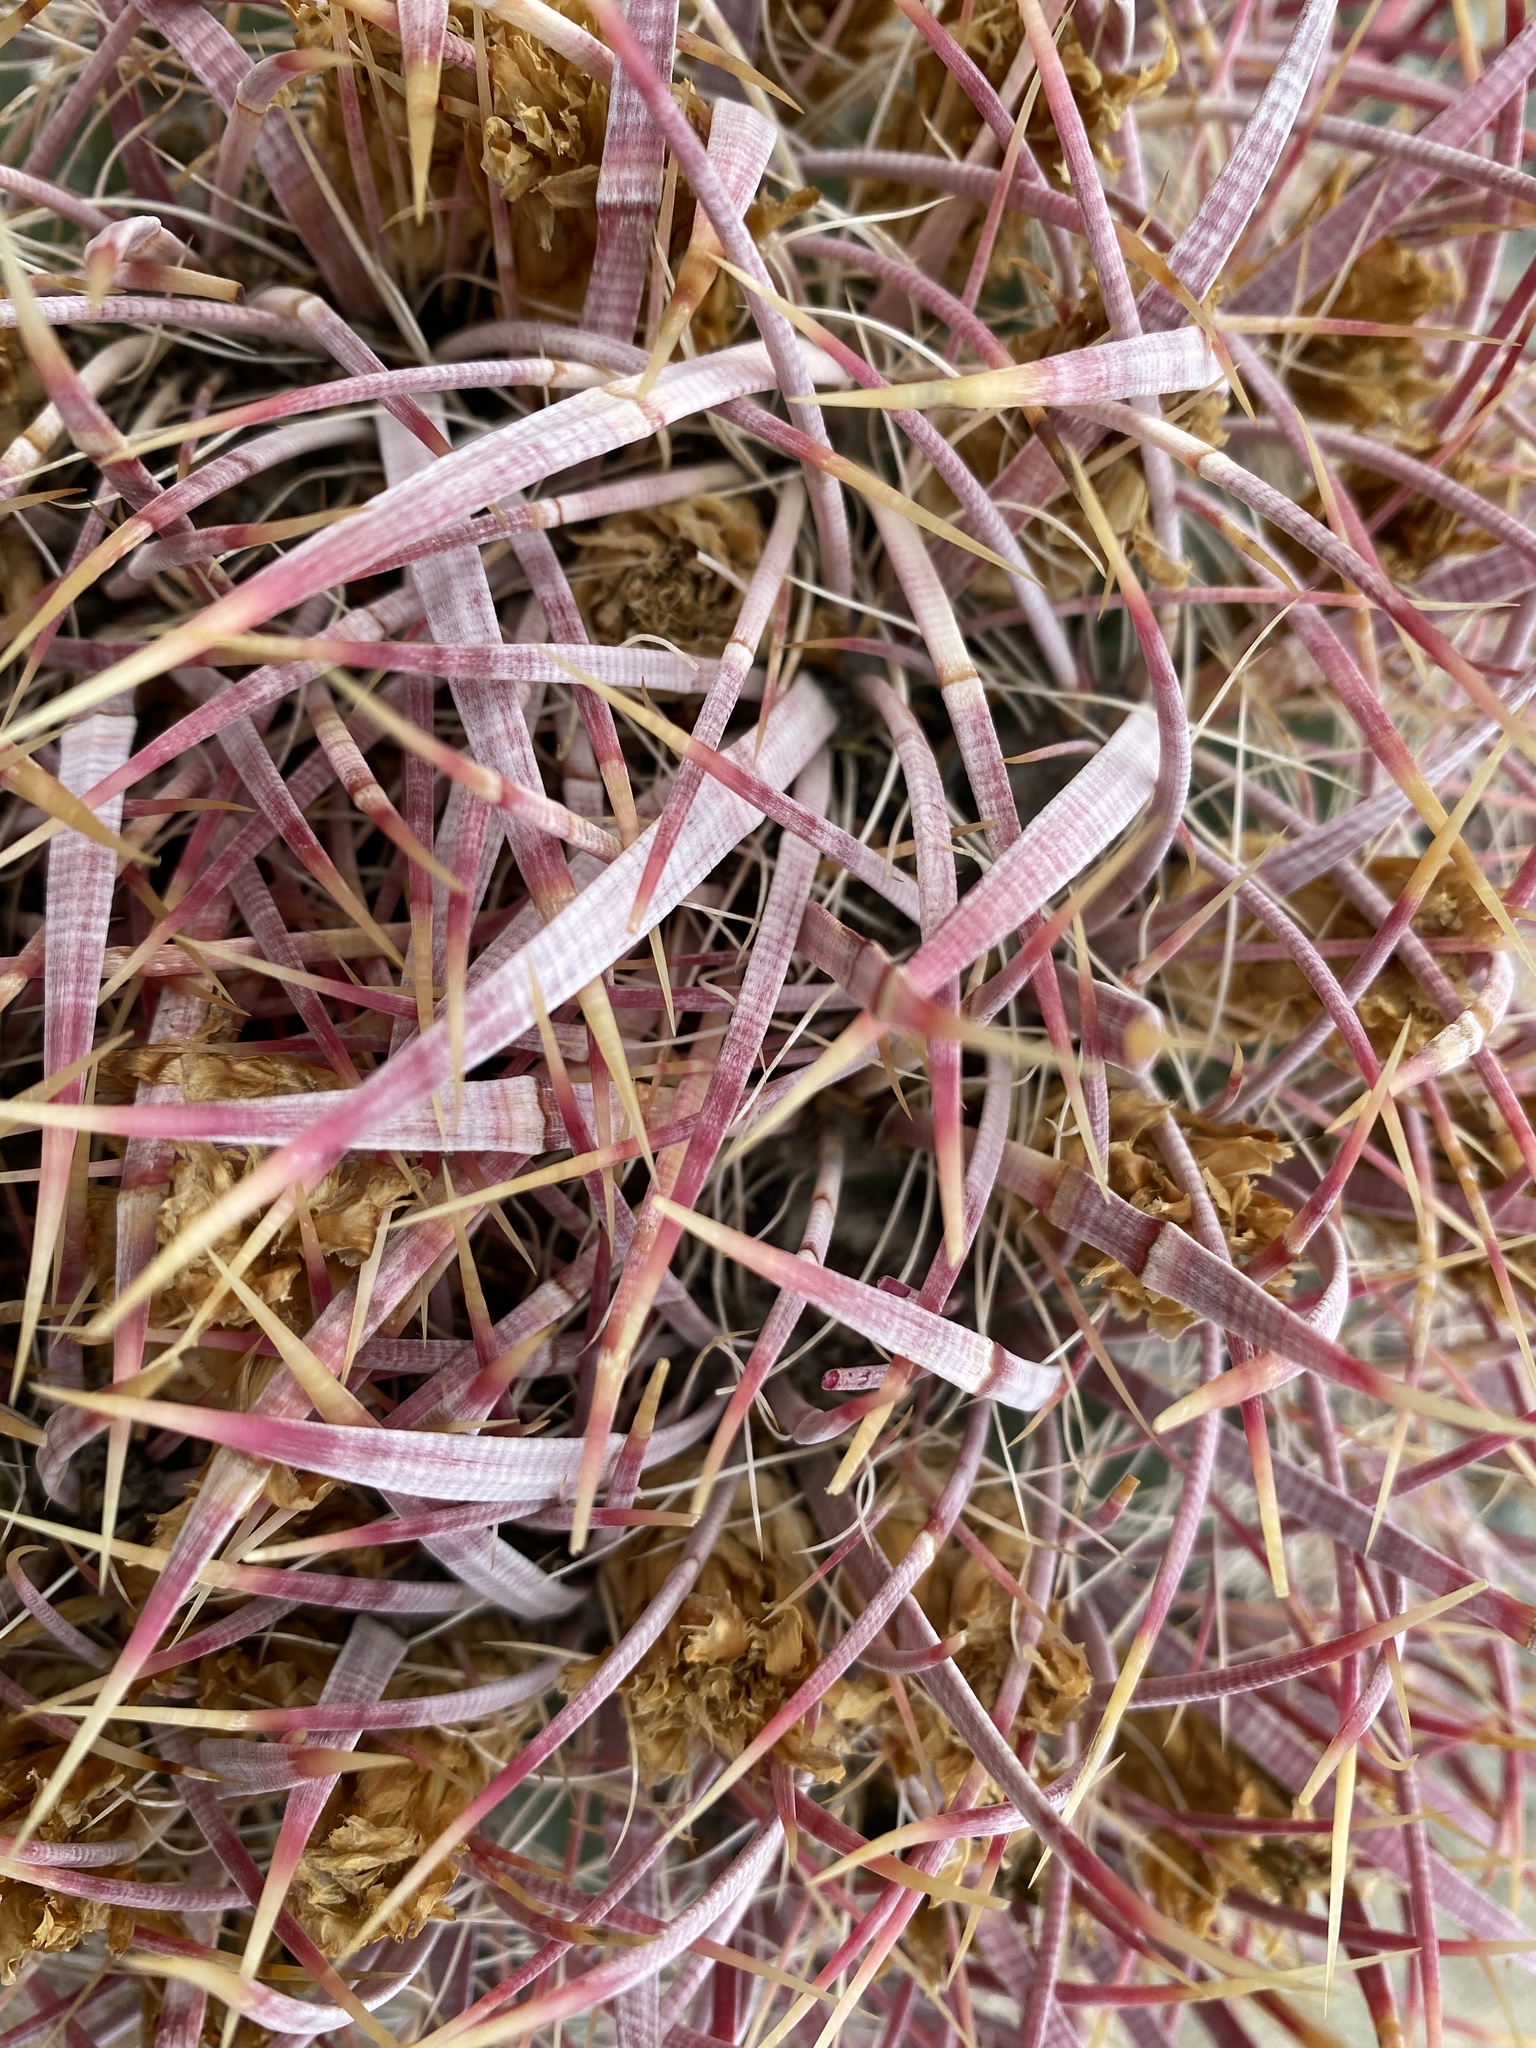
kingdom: Plantae
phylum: Tracheophyta
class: Magnoliopsida
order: Caryophyllales
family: Cactaceae
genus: Ferocactus
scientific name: Ferocactus cylindraceus
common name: California barrel cactus
